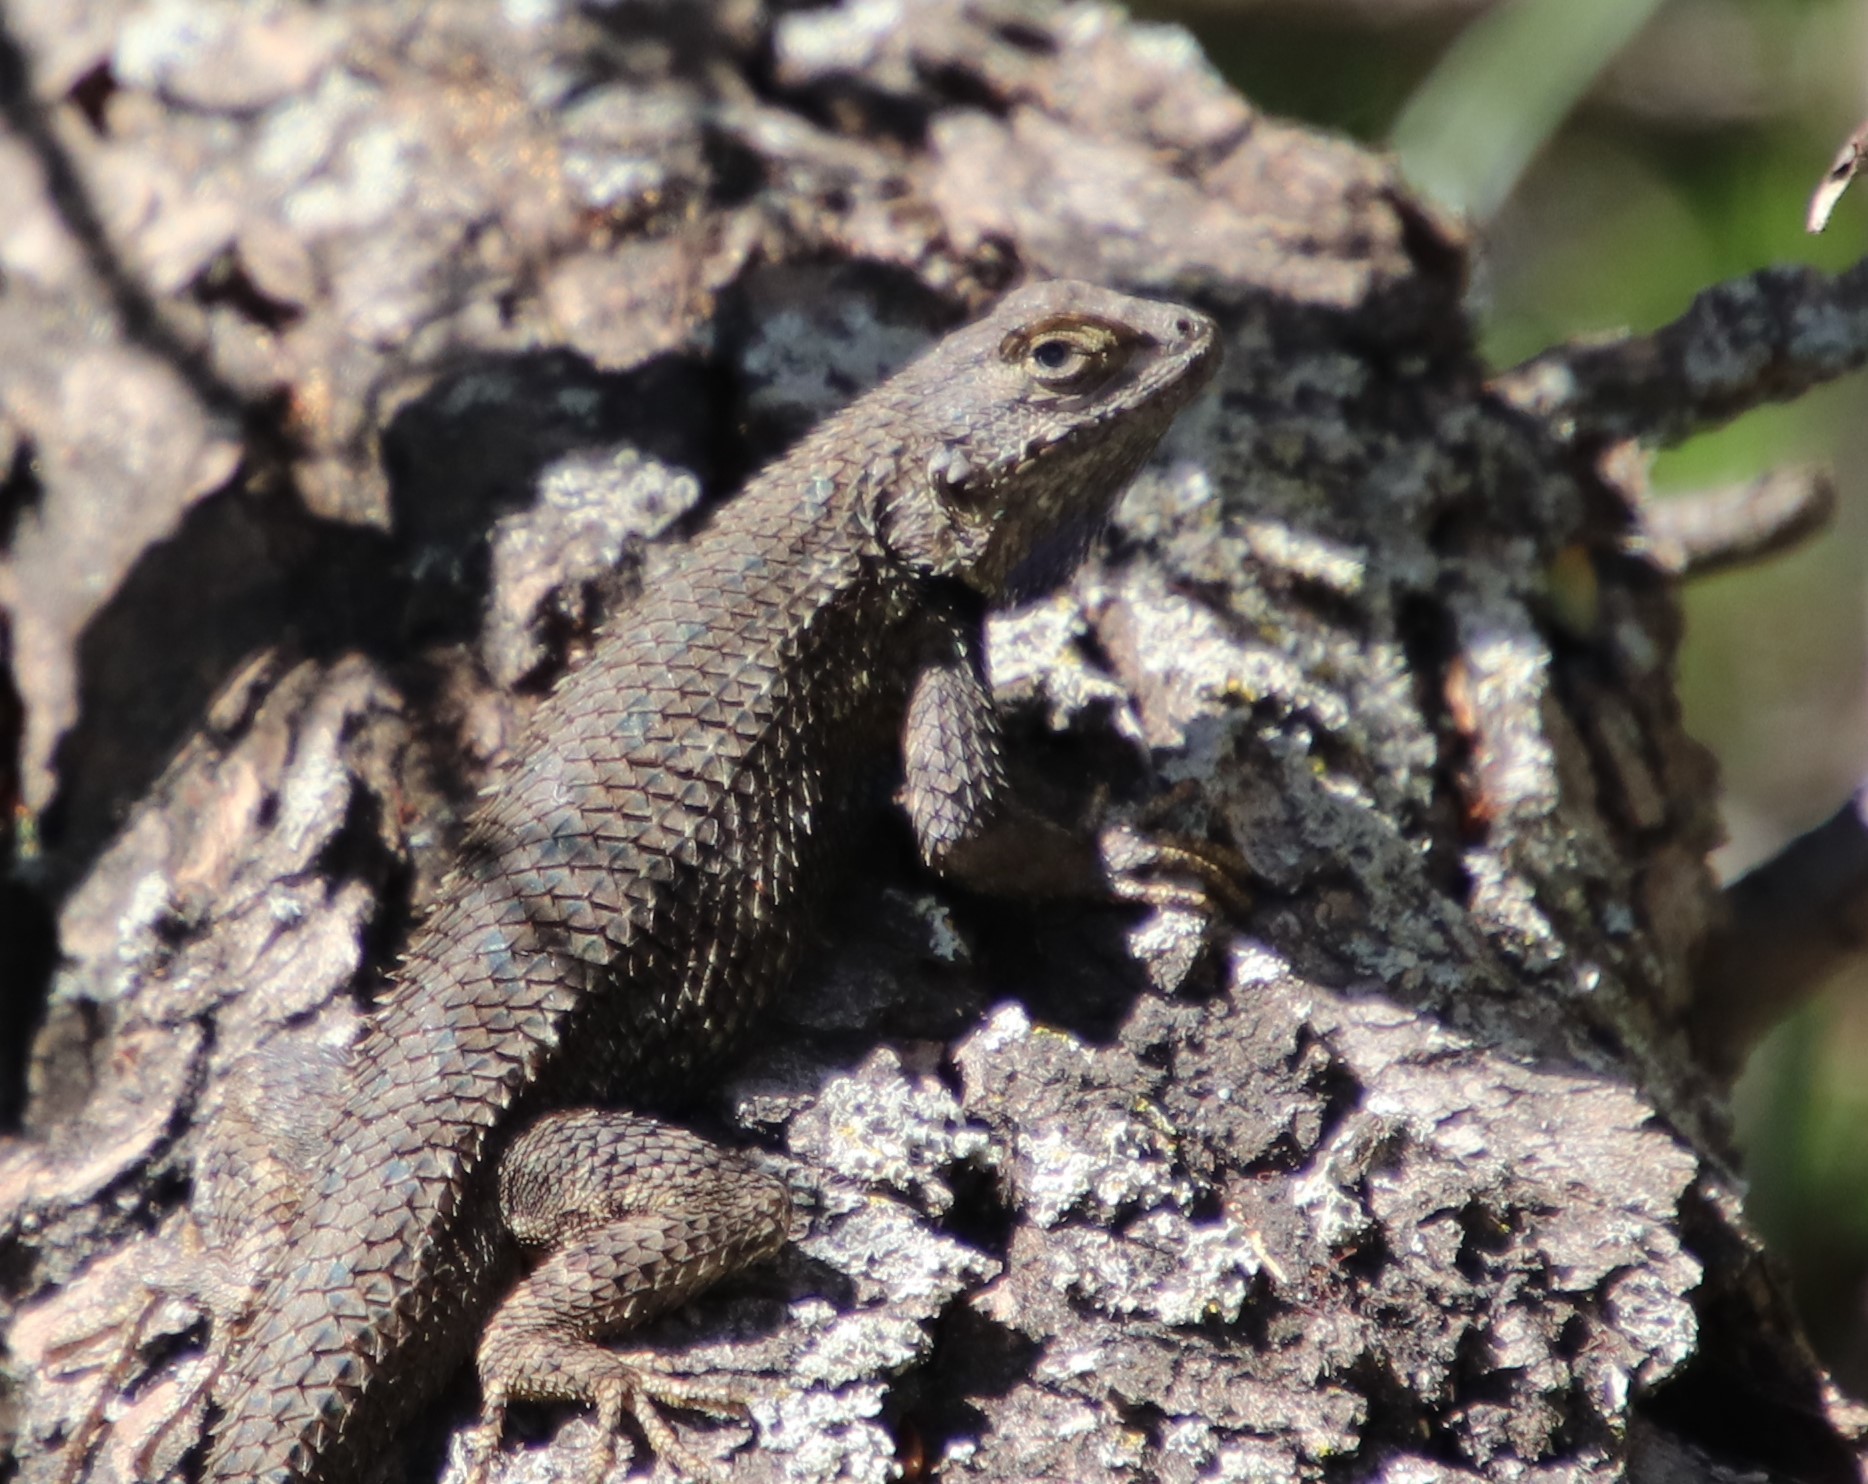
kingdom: Animalia
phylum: Chordata
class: Squamata
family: Phrynosomatidae
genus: Sceloporus
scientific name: Sceloporus occidentalis
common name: Western fence lizard
